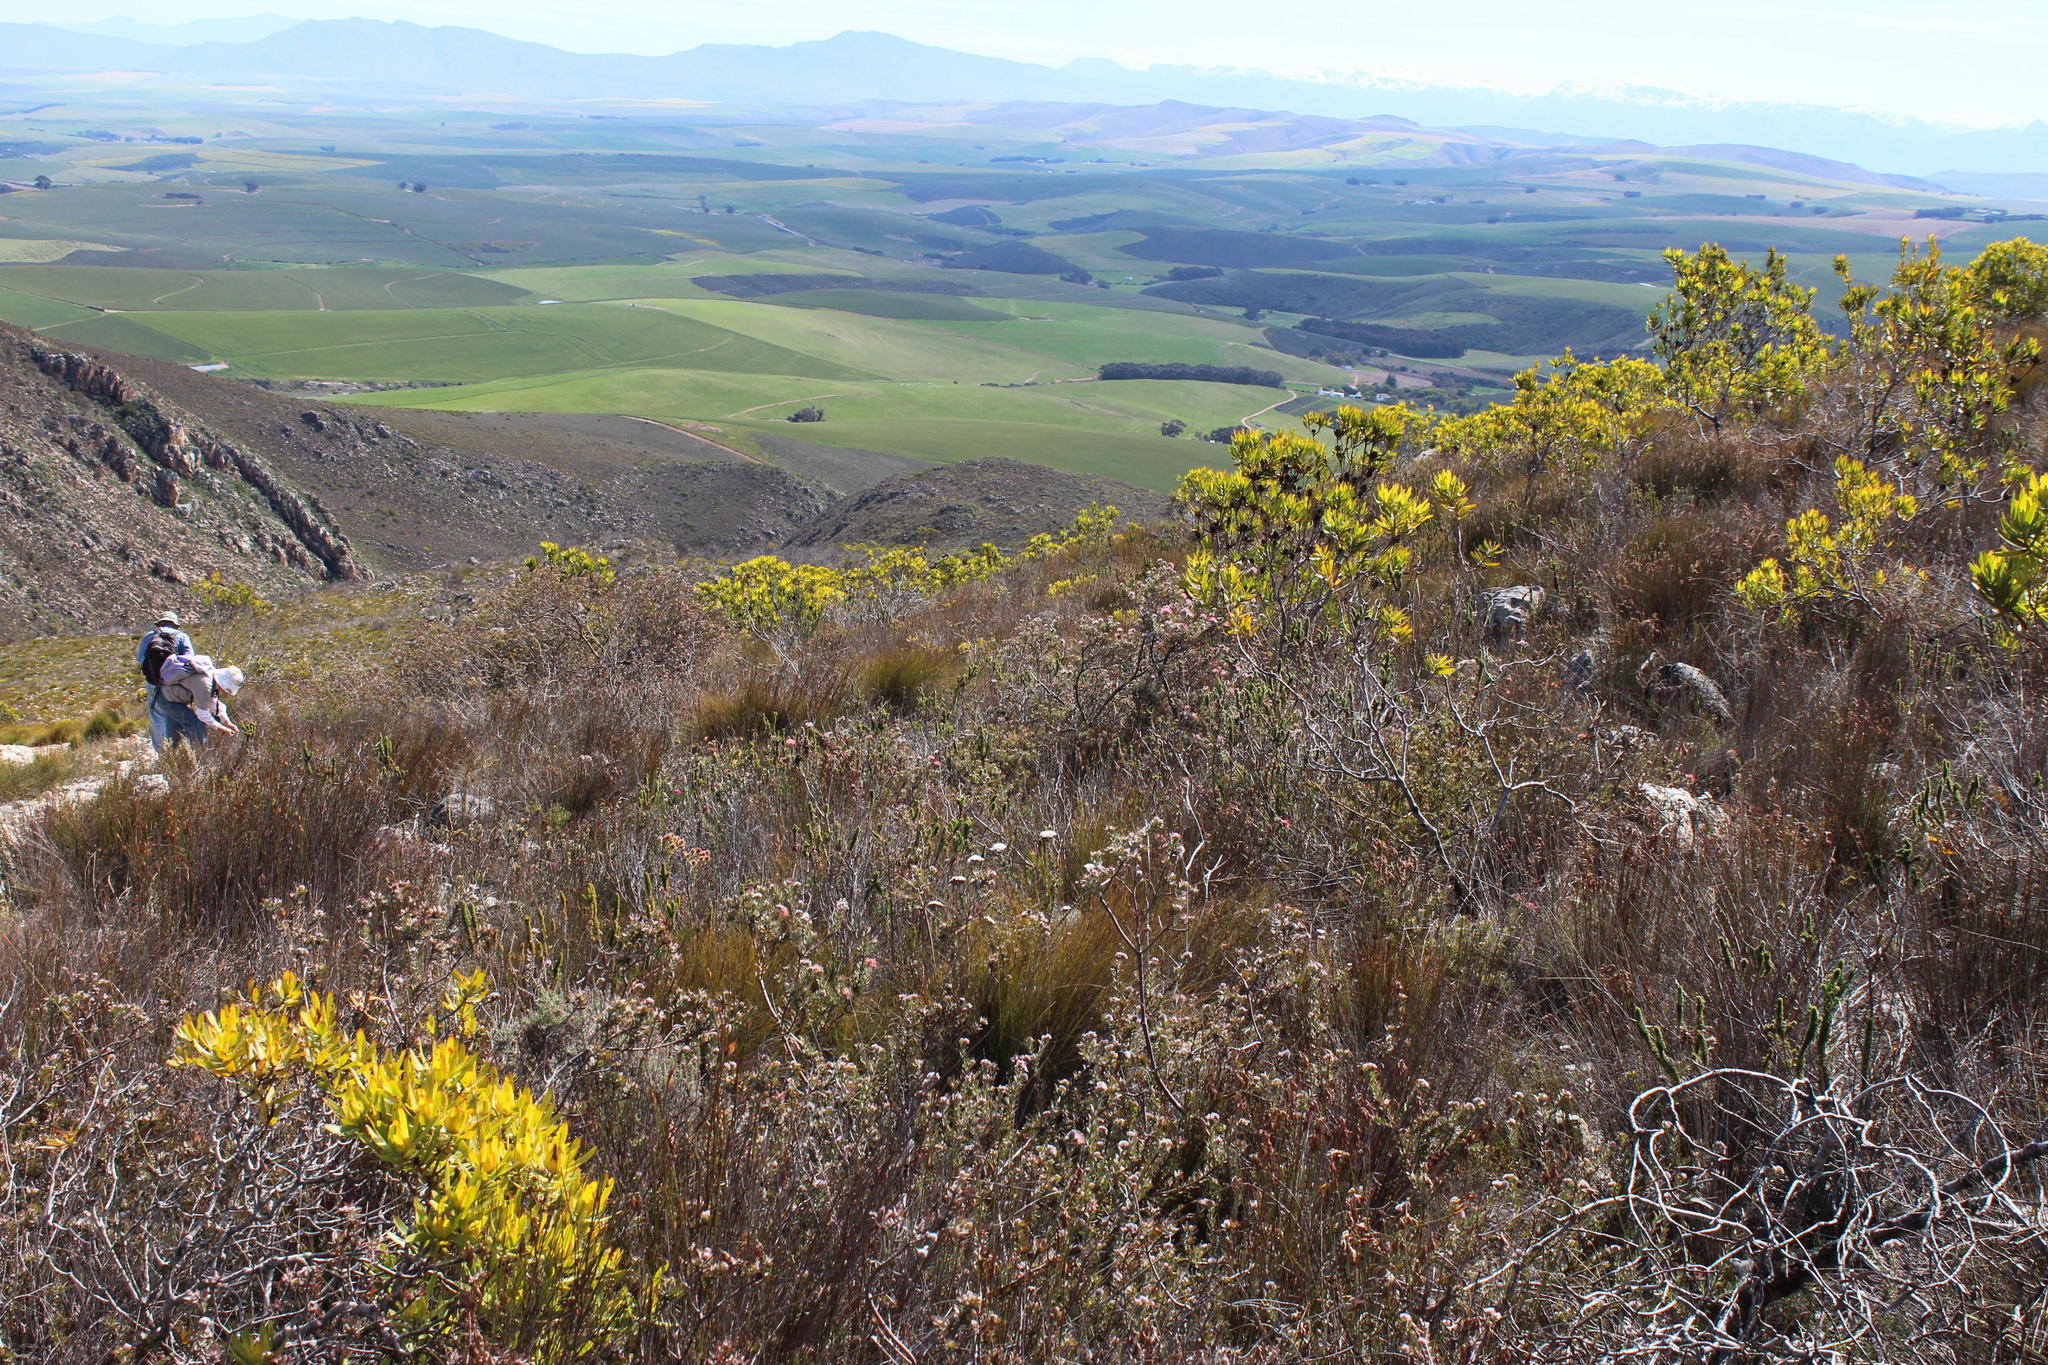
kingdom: Plantae
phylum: Tracheophyta
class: Magnoliopsida
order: Proteales
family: Proteaceae
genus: Leucospermum
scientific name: Leucospermum calligerum
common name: Arid pincushion
